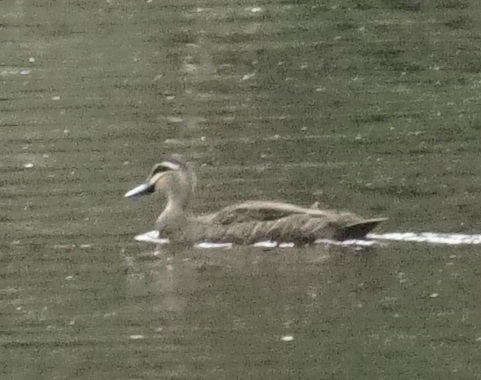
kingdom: Animalia
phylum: Chordata
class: Aves
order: Anseriformes
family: Anatidae
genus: Anas
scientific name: Anas superciliosa
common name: Pacific black duck
